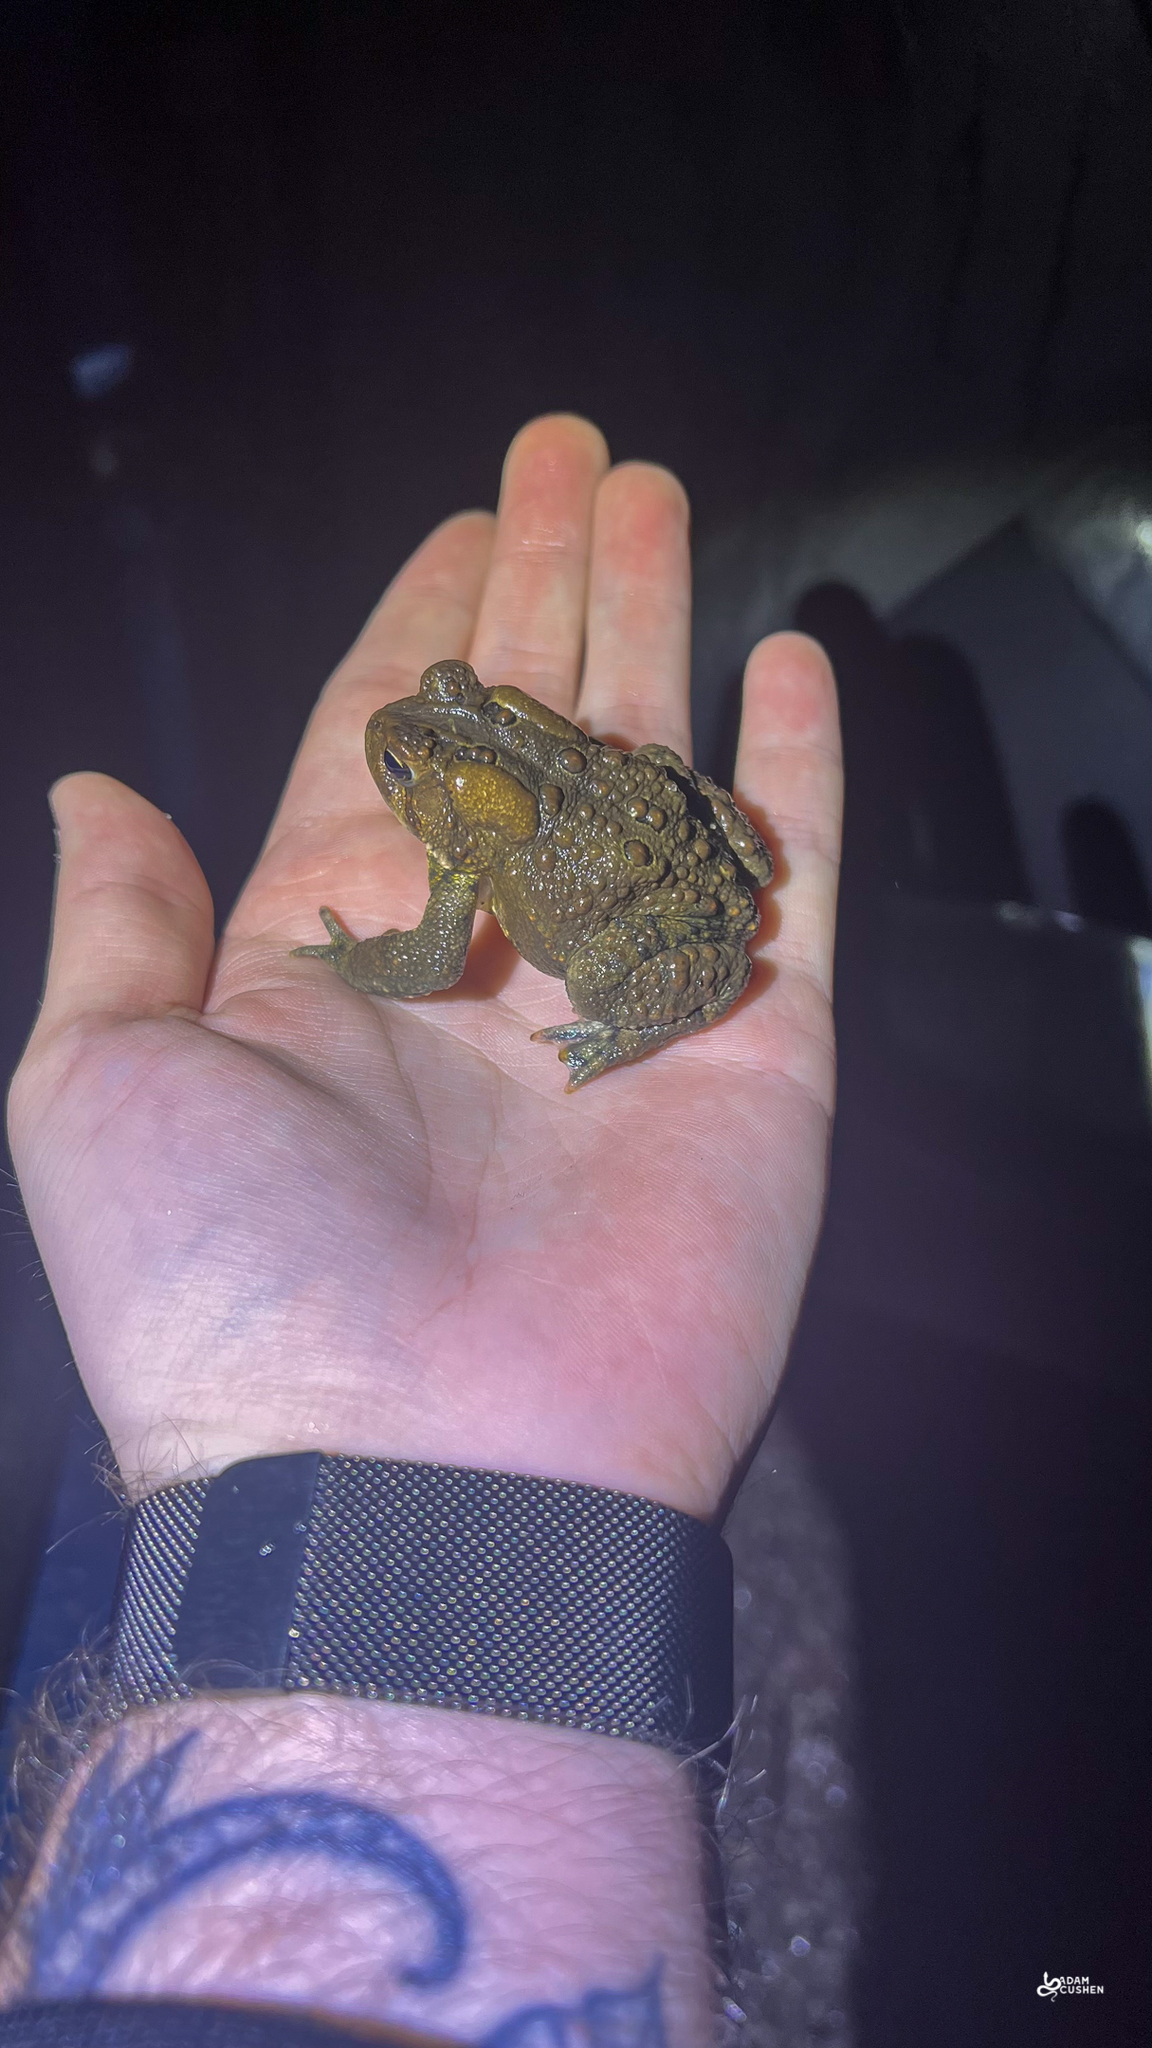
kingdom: Animalia
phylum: Chordata
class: Amphibia
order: Anura
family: Bufonidae
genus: Anaxyrus
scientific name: Anaxyrus americanus
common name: American toad
